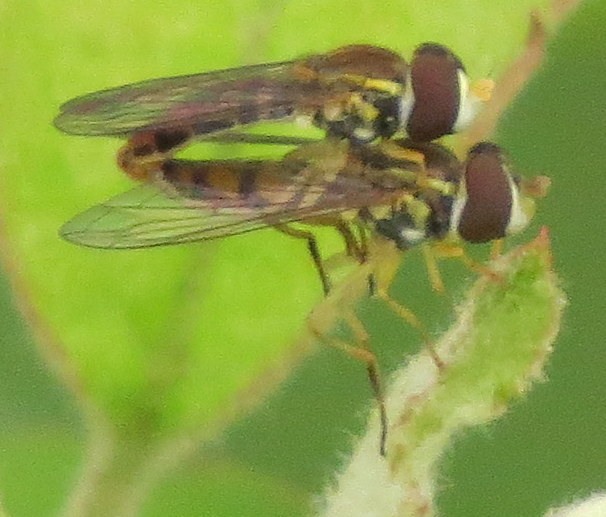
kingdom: Animalia
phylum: Arthropoda
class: Insecta
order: Diptera
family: Syrphidae
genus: Toxomerus
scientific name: Toxomerus marginatus
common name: Syrphid fly
